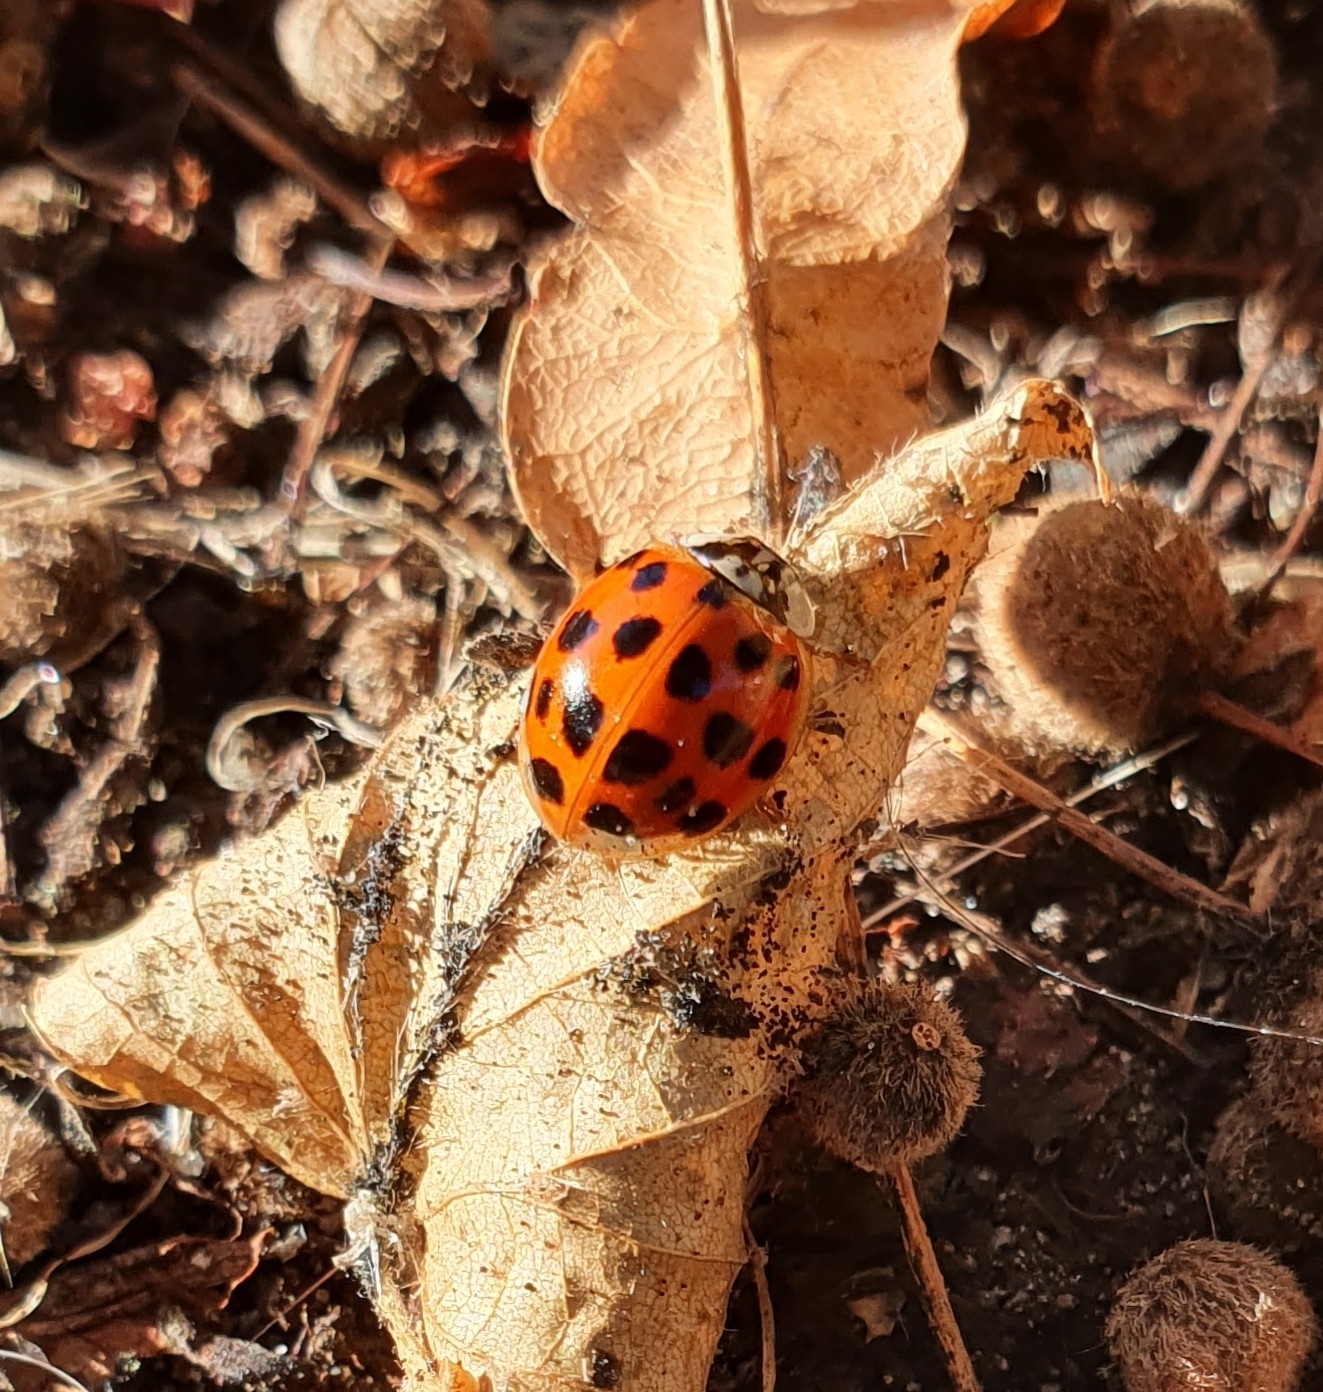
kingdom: Animalia
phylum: Arthropoda
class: Insecta
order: Coleoptera
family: Coccinellidae
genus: Harmonia
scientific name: Harmonia axyridis
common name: Harlequin ladybird
